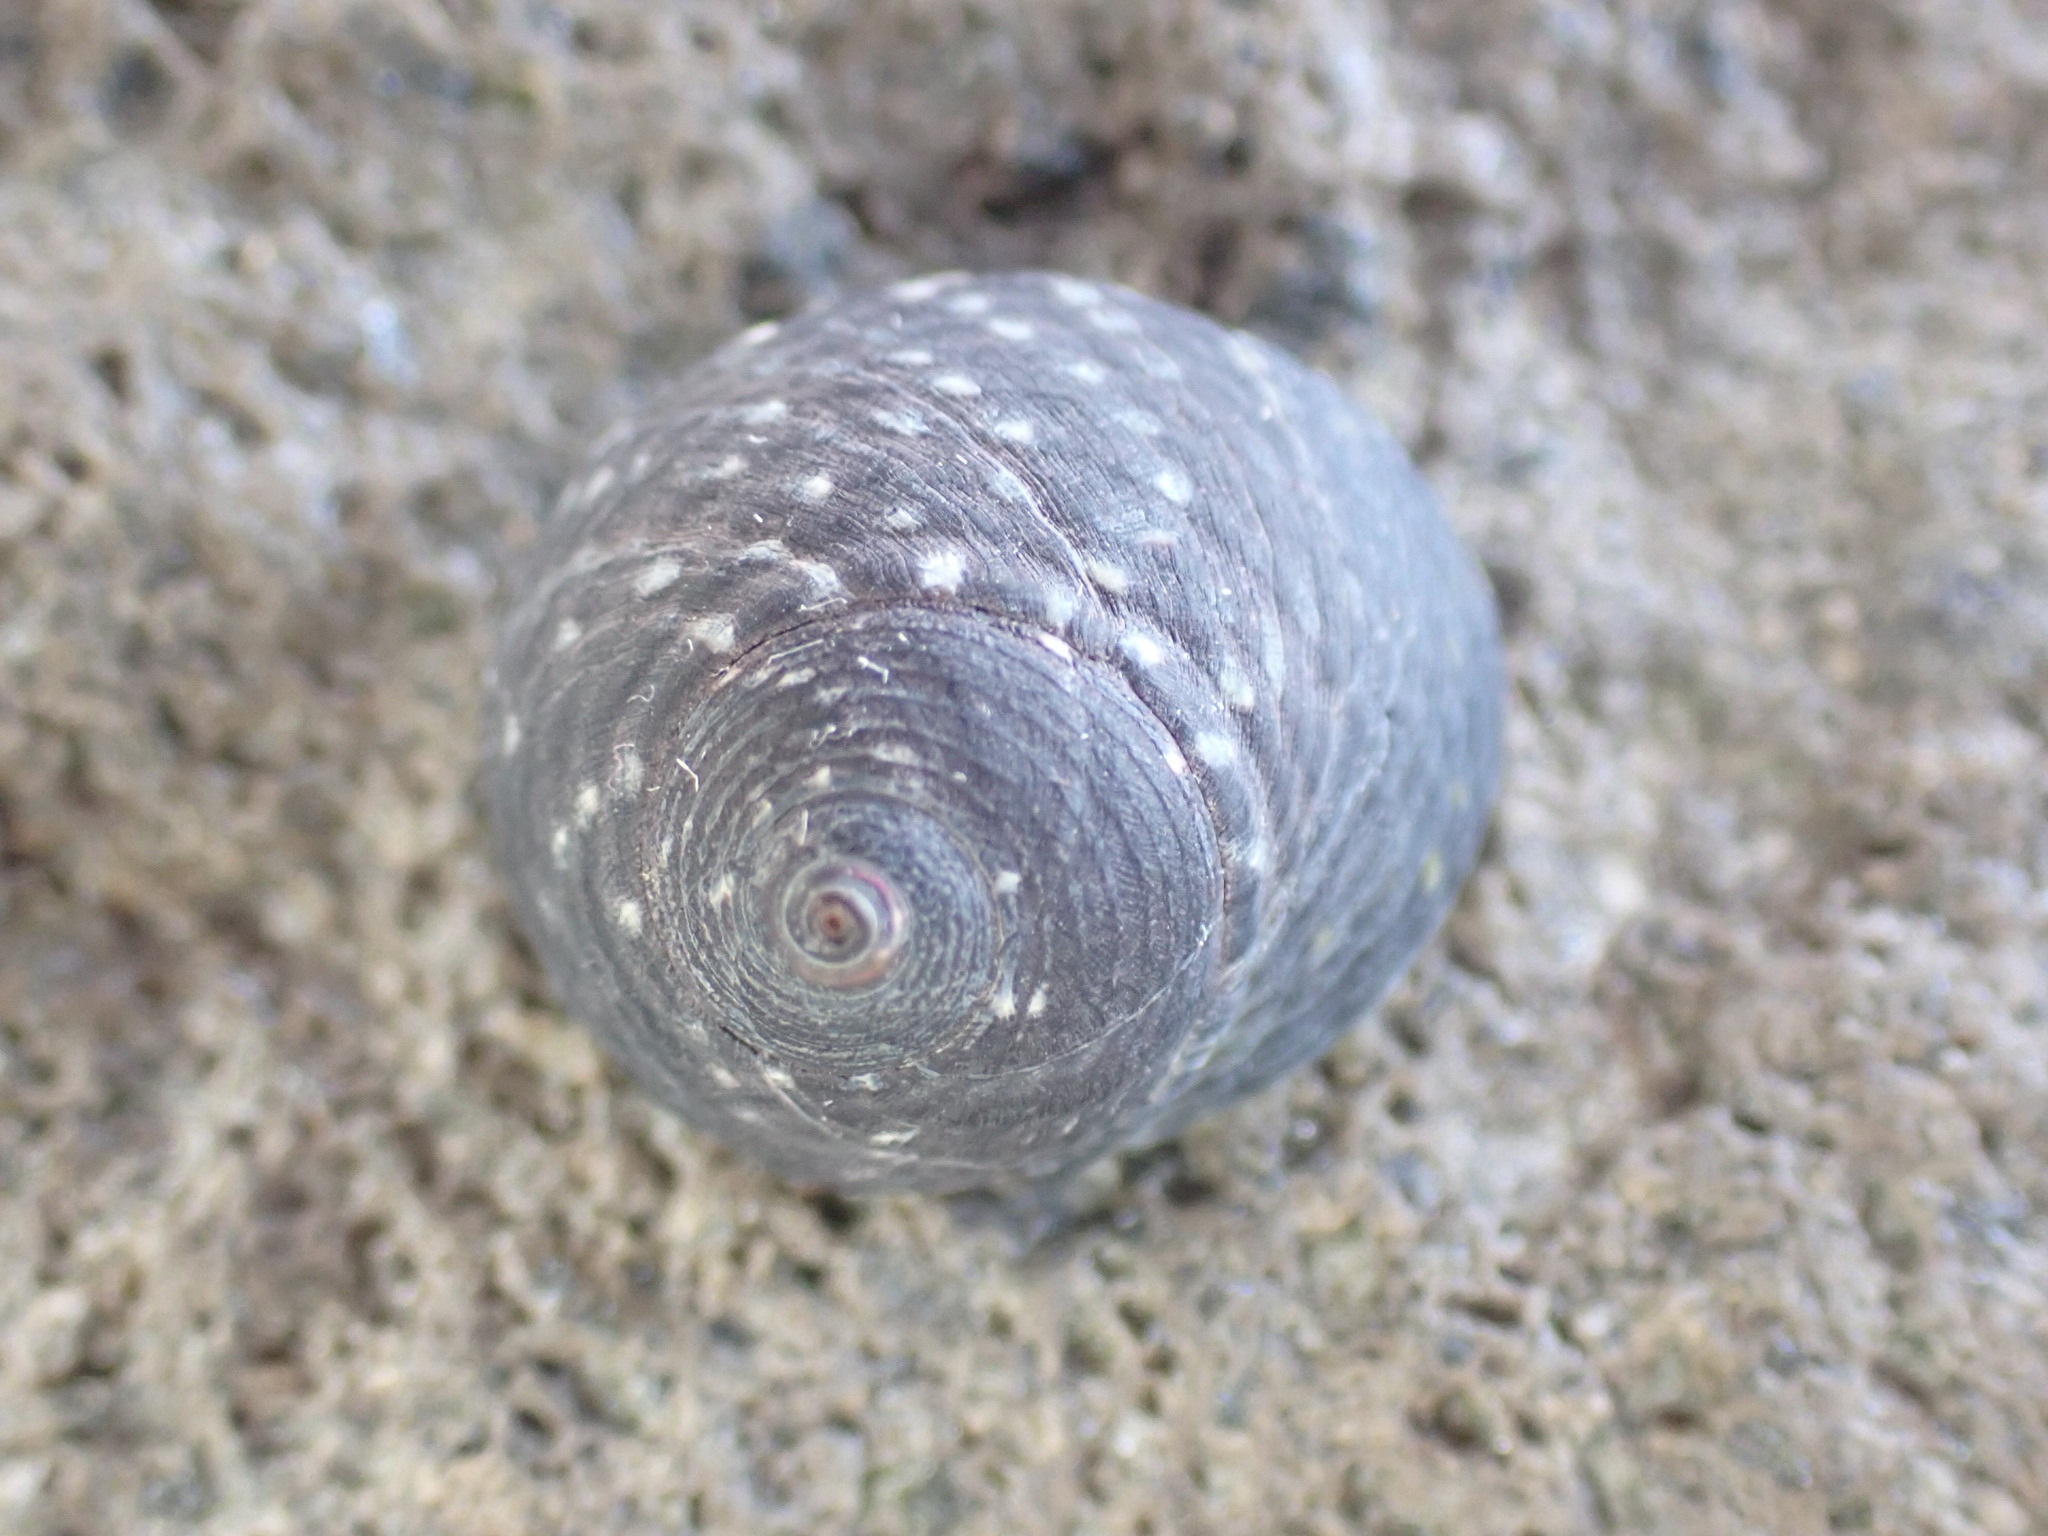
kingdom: Animalia
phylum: Mollusca
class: Gastropoda
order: Trochida
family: Trochidae
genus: Diloma
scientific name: Diloma aridum
